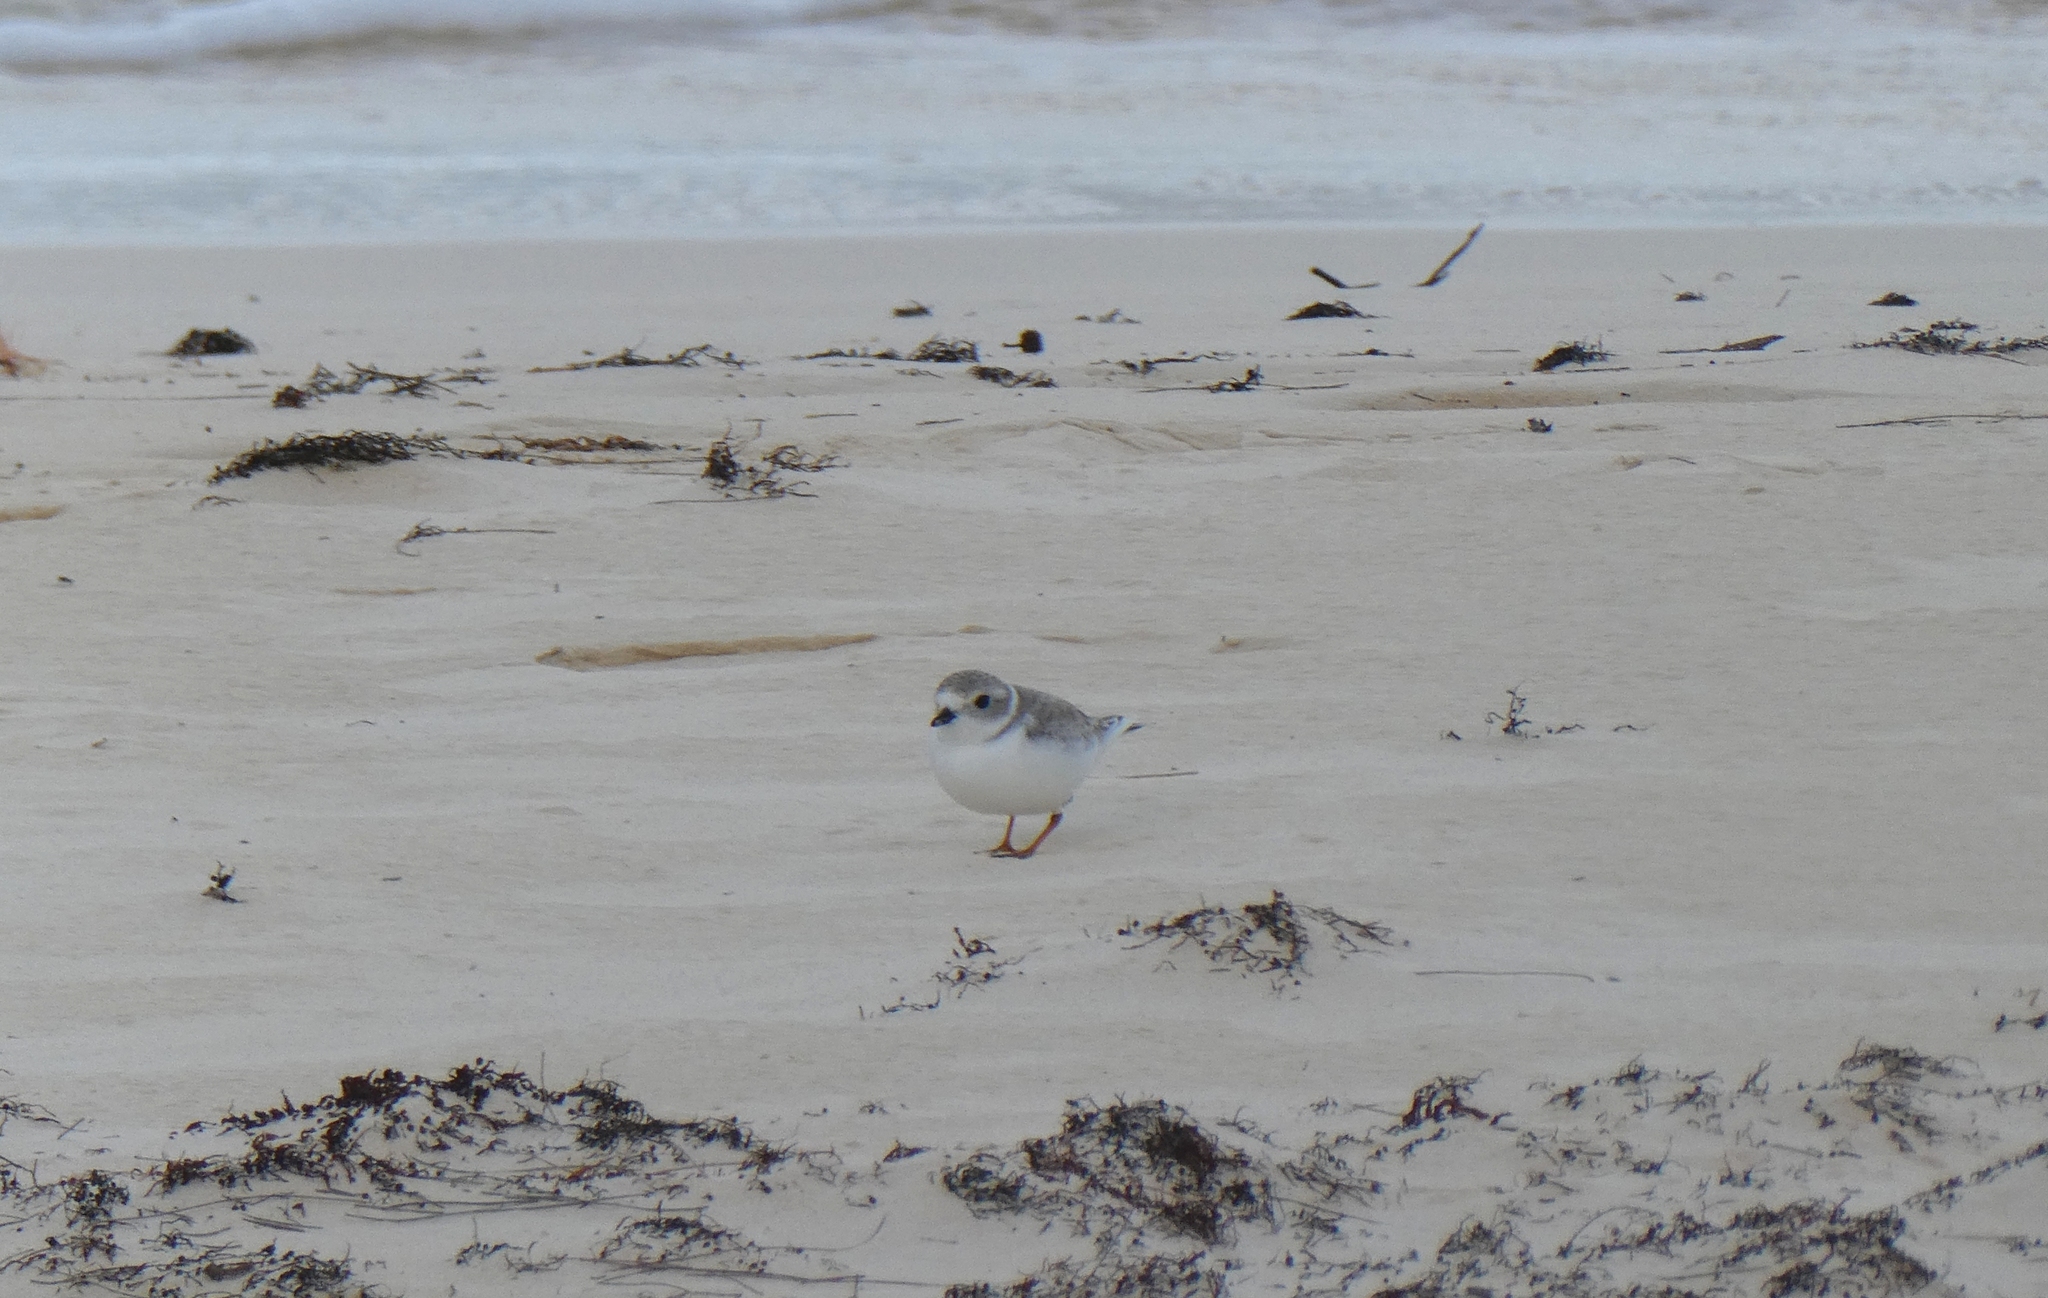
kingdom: Animalia
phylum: Chordata
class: Aves
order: Charadriiformes
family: Charadriidae
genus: Charadrius
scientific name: Charadrius melodus
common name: Piping plover
